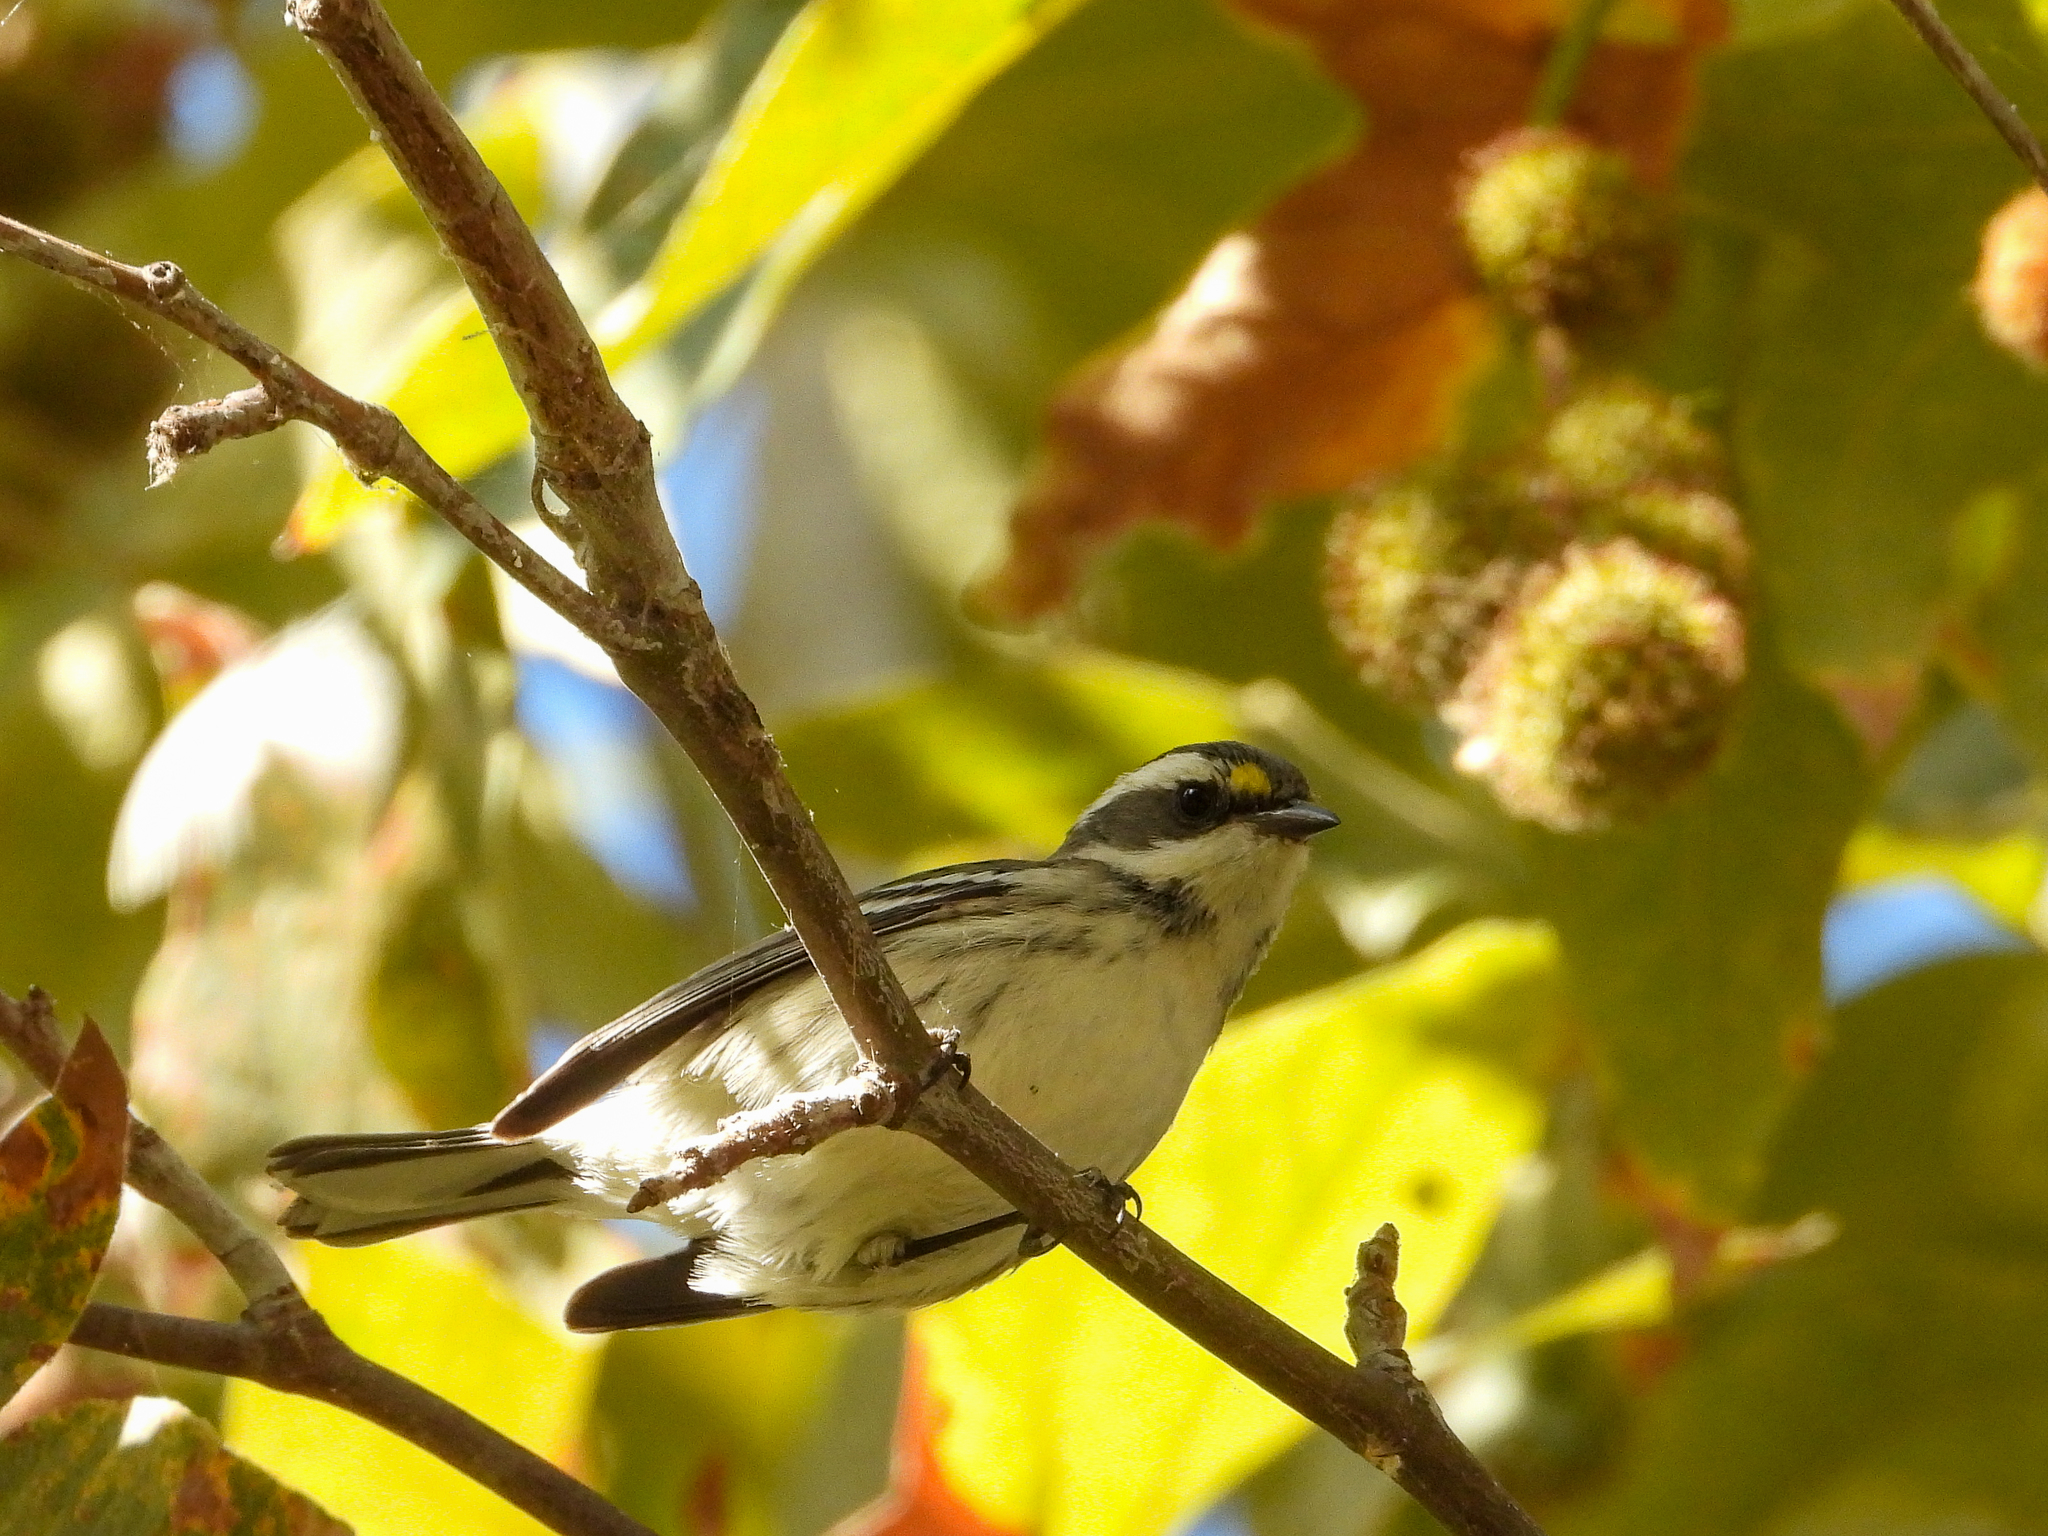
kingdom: Animalia
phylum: Chordata
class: Aves
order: Passeriformes
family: Parulidae
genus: Setophaga
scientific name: Setophaga nigrescens
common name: Black-throated gray warbler
